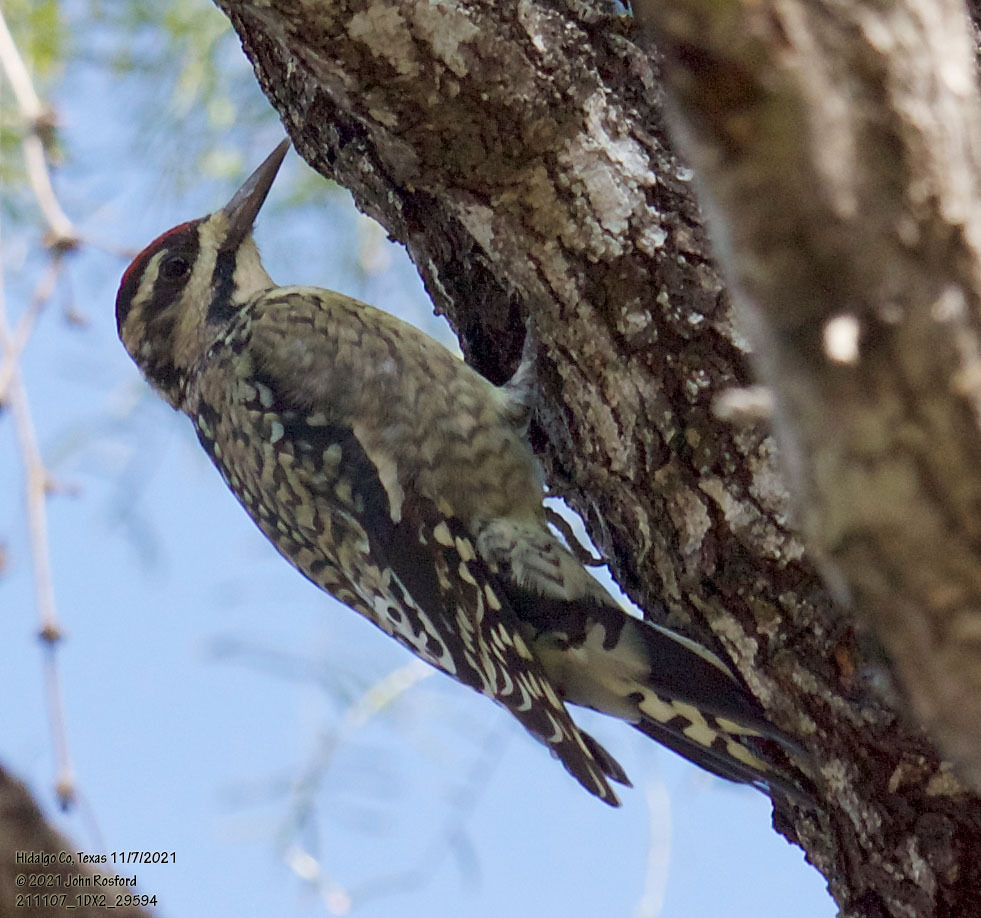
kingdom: Animalia
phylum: Chordata
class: Aves
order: Piciformes
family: Picidae
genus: Sphyrapicus
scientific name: Sphyrapicus varius
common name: Yellow-bellied sapsucker
